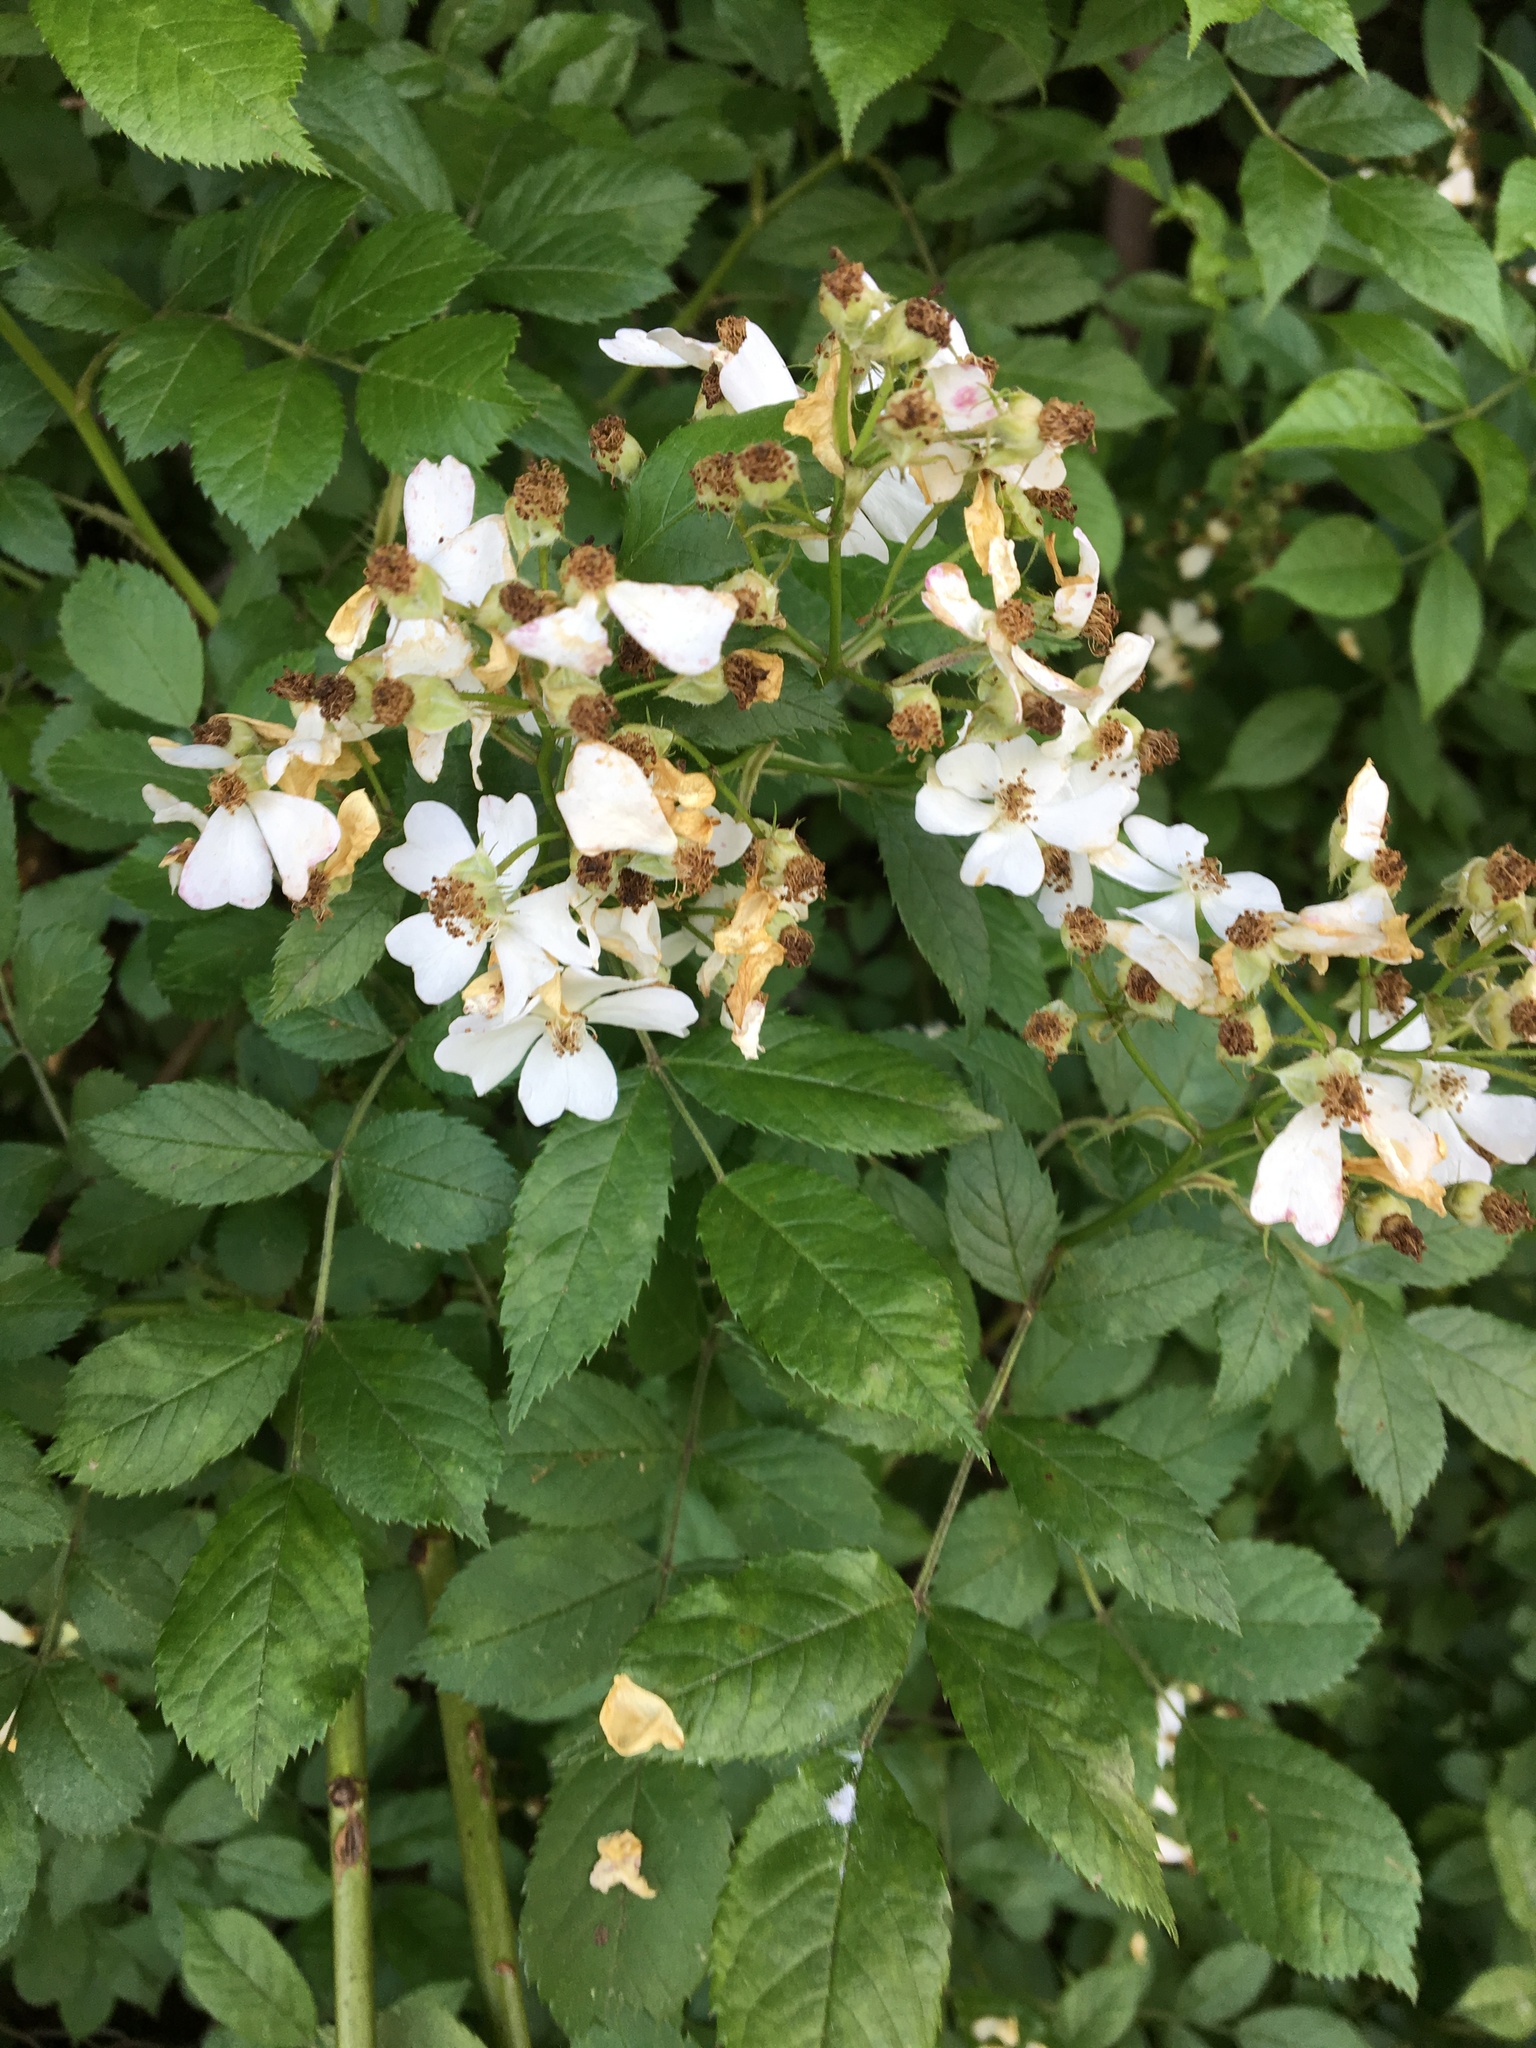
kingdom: Plantae
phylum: Tracheophyta
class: Magnoliopsida
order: Rosales
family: Rosaceae
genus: Rosa
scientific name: Rosa multiflora
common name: Multiflora rose
